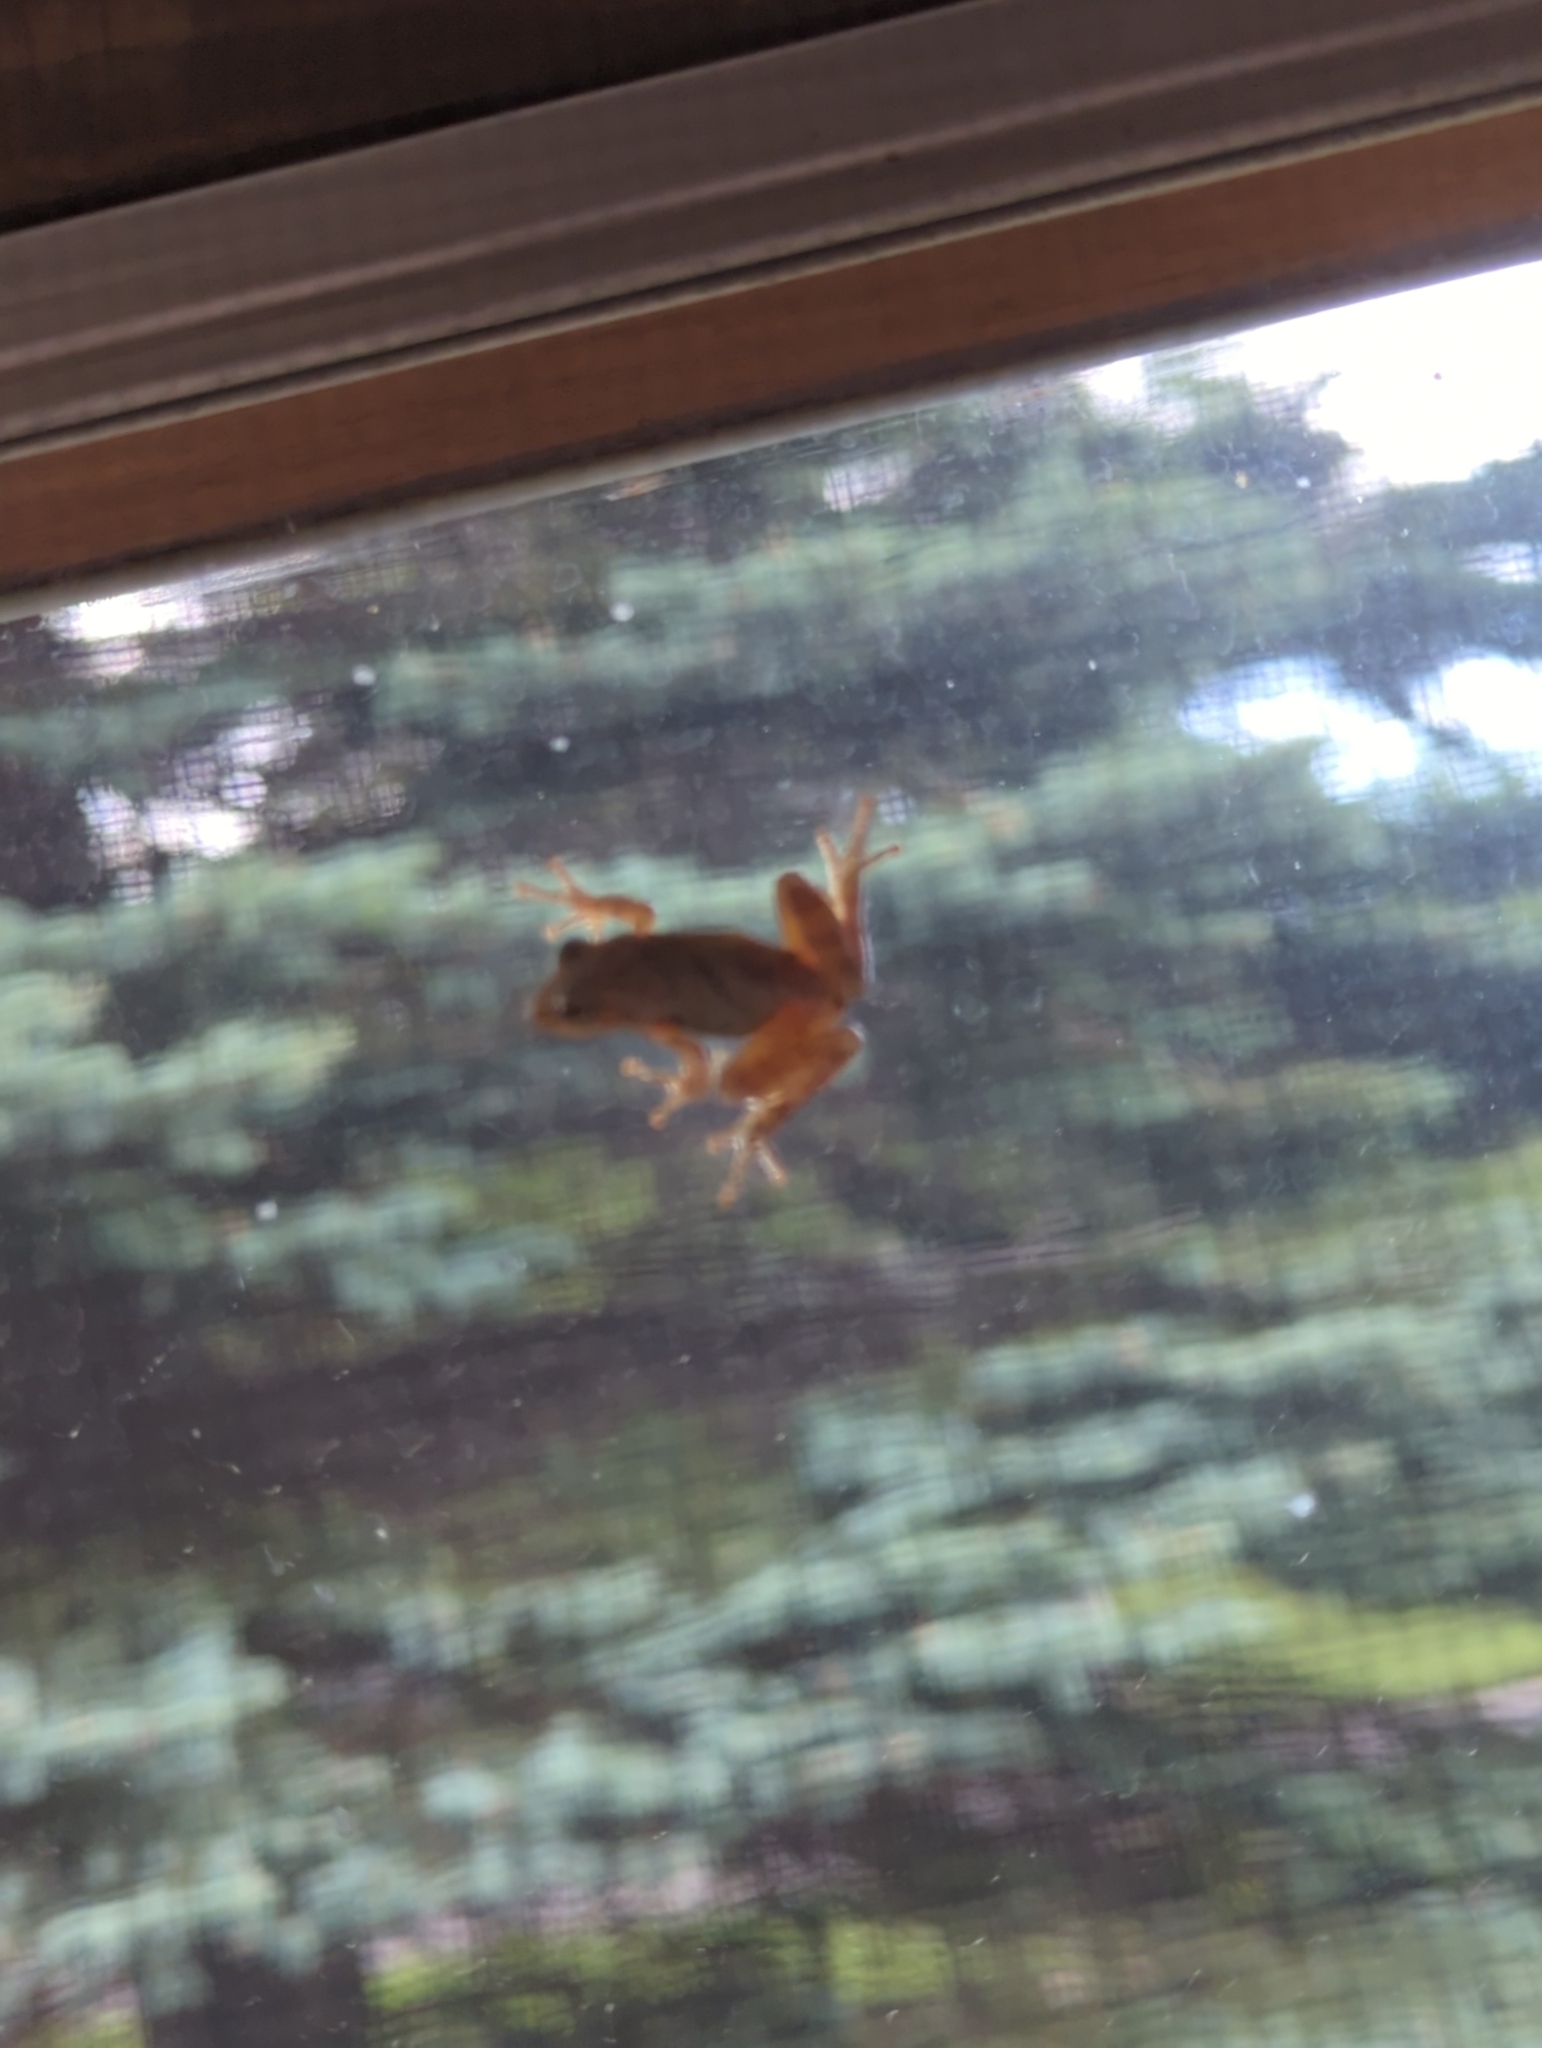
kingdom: Animalia
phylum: Chordata
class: Amphibia
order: Anura
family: Hylidae
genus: Pseudacris
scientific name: Pseudacris crucifer
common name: Spring peeper
